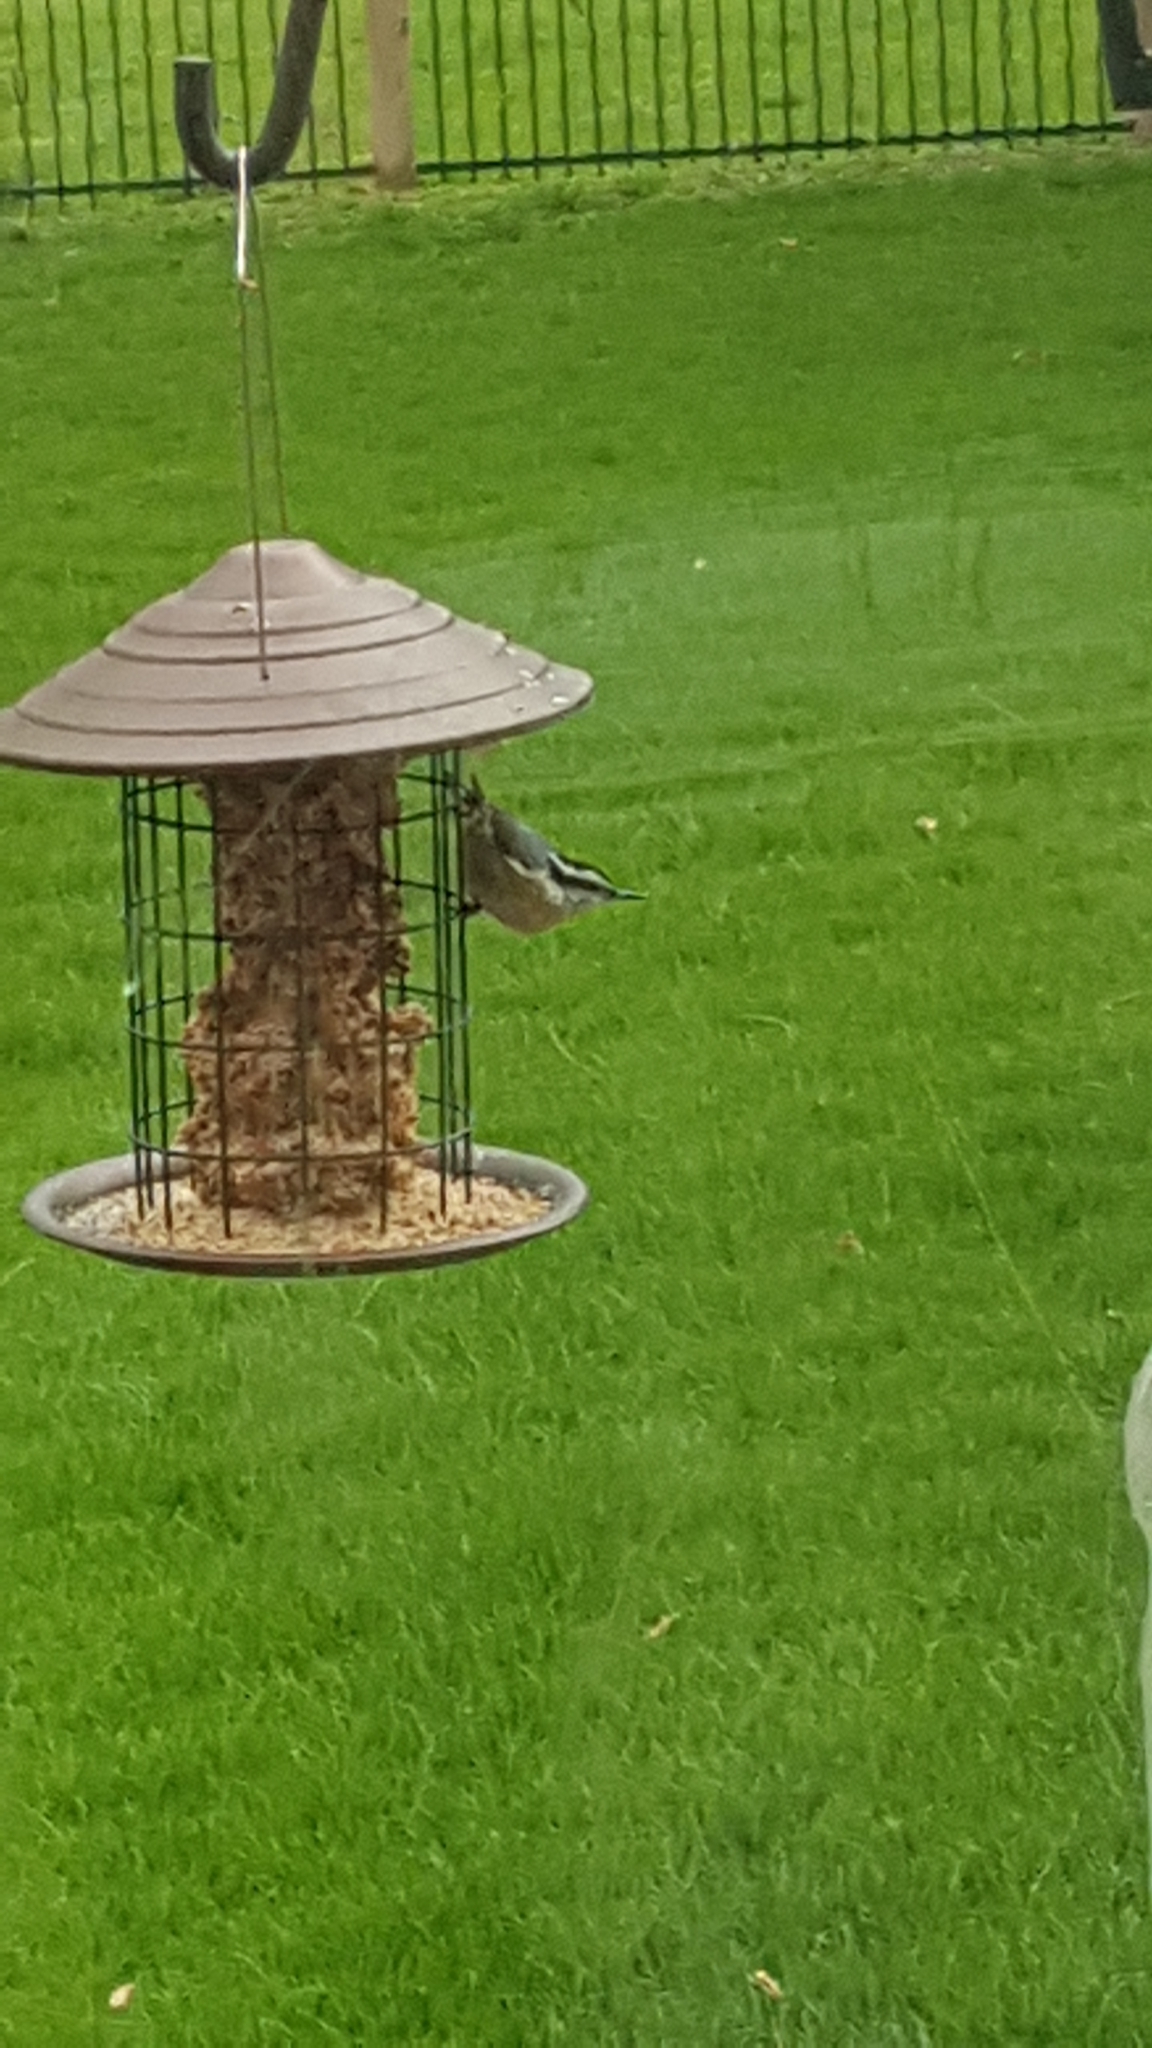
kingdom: Animalia
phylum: Chordata
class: Aves
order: Passeriformes
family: Sittidae
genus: Sitta
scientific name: Sitta canadensis
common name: Red-breasted nuthatch
